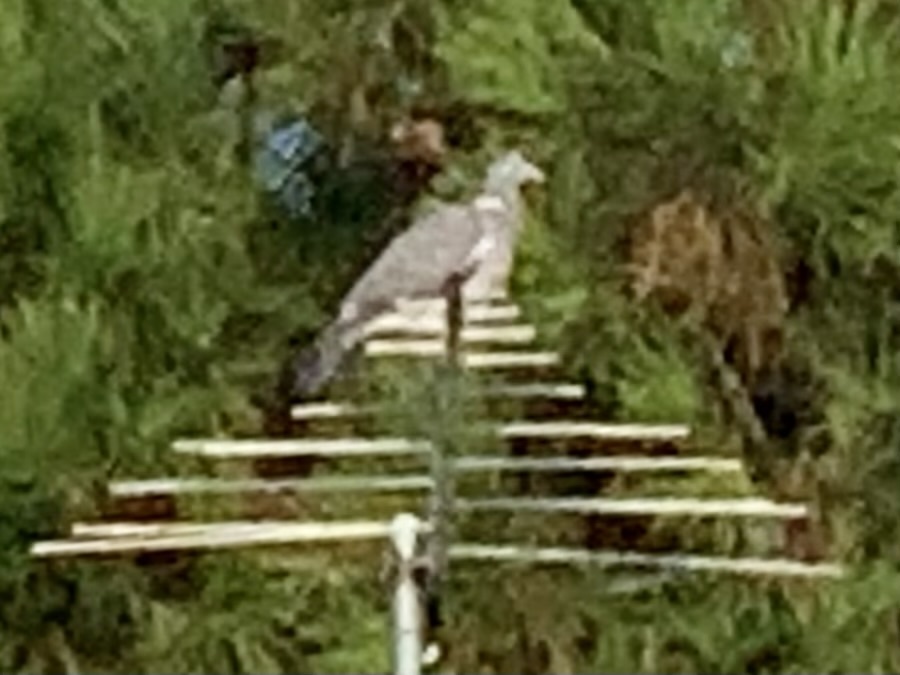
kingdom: Animalia
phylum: Chordata
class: Aves
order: Columbiformes
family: Columbidae
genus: Columba
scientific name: Columba palumbus
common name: Common wood pigeon
